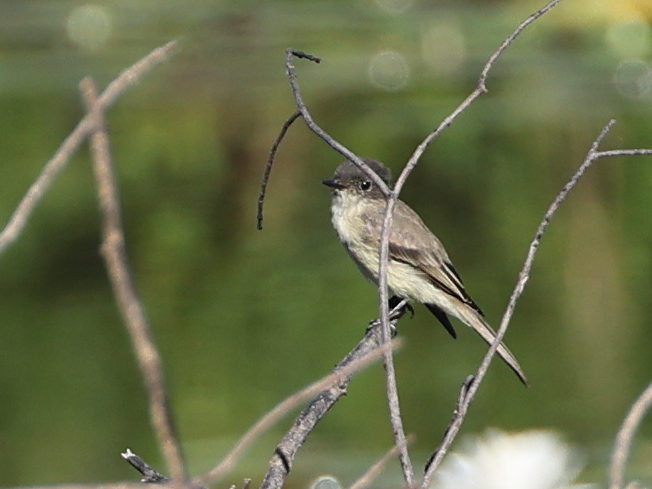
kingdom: Animalia
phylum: Chordata
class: Aves
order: Passeriformes
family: Tyrannidae
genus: Sayornis
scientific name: Sayornis phoebe
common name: Eastern phoebe
